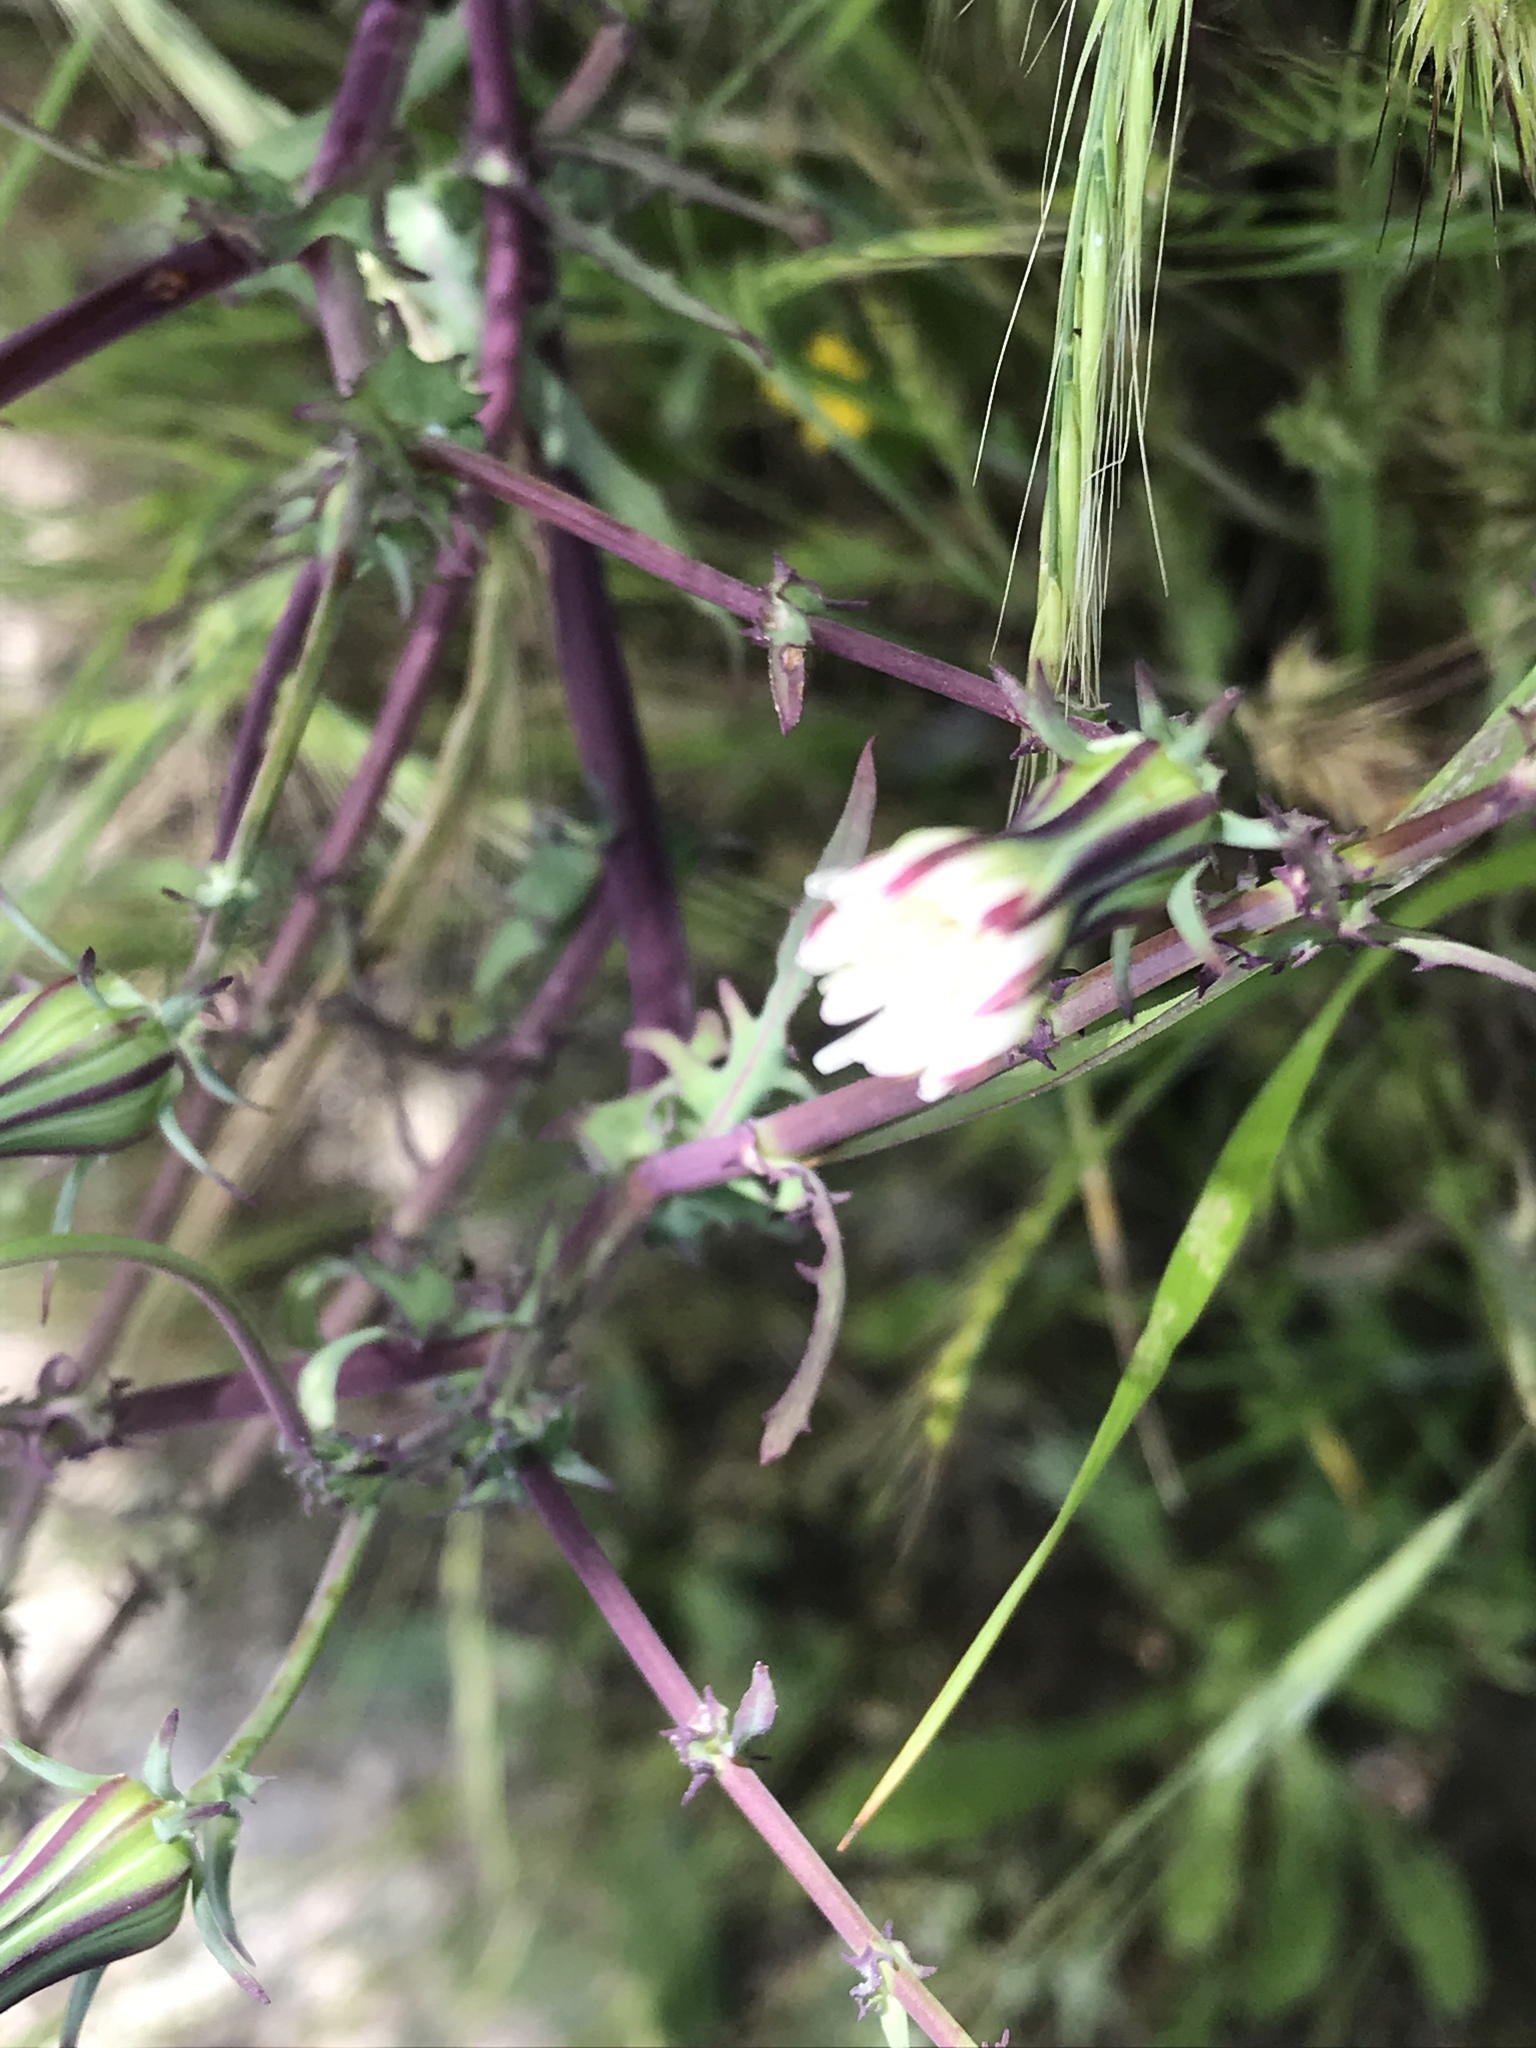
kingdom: Plantae
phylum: Tracheophyta
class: Magnoliopsida
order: Asterales
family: Asteraceae
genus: Rafinesquia
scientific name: Rafinesquia californica
